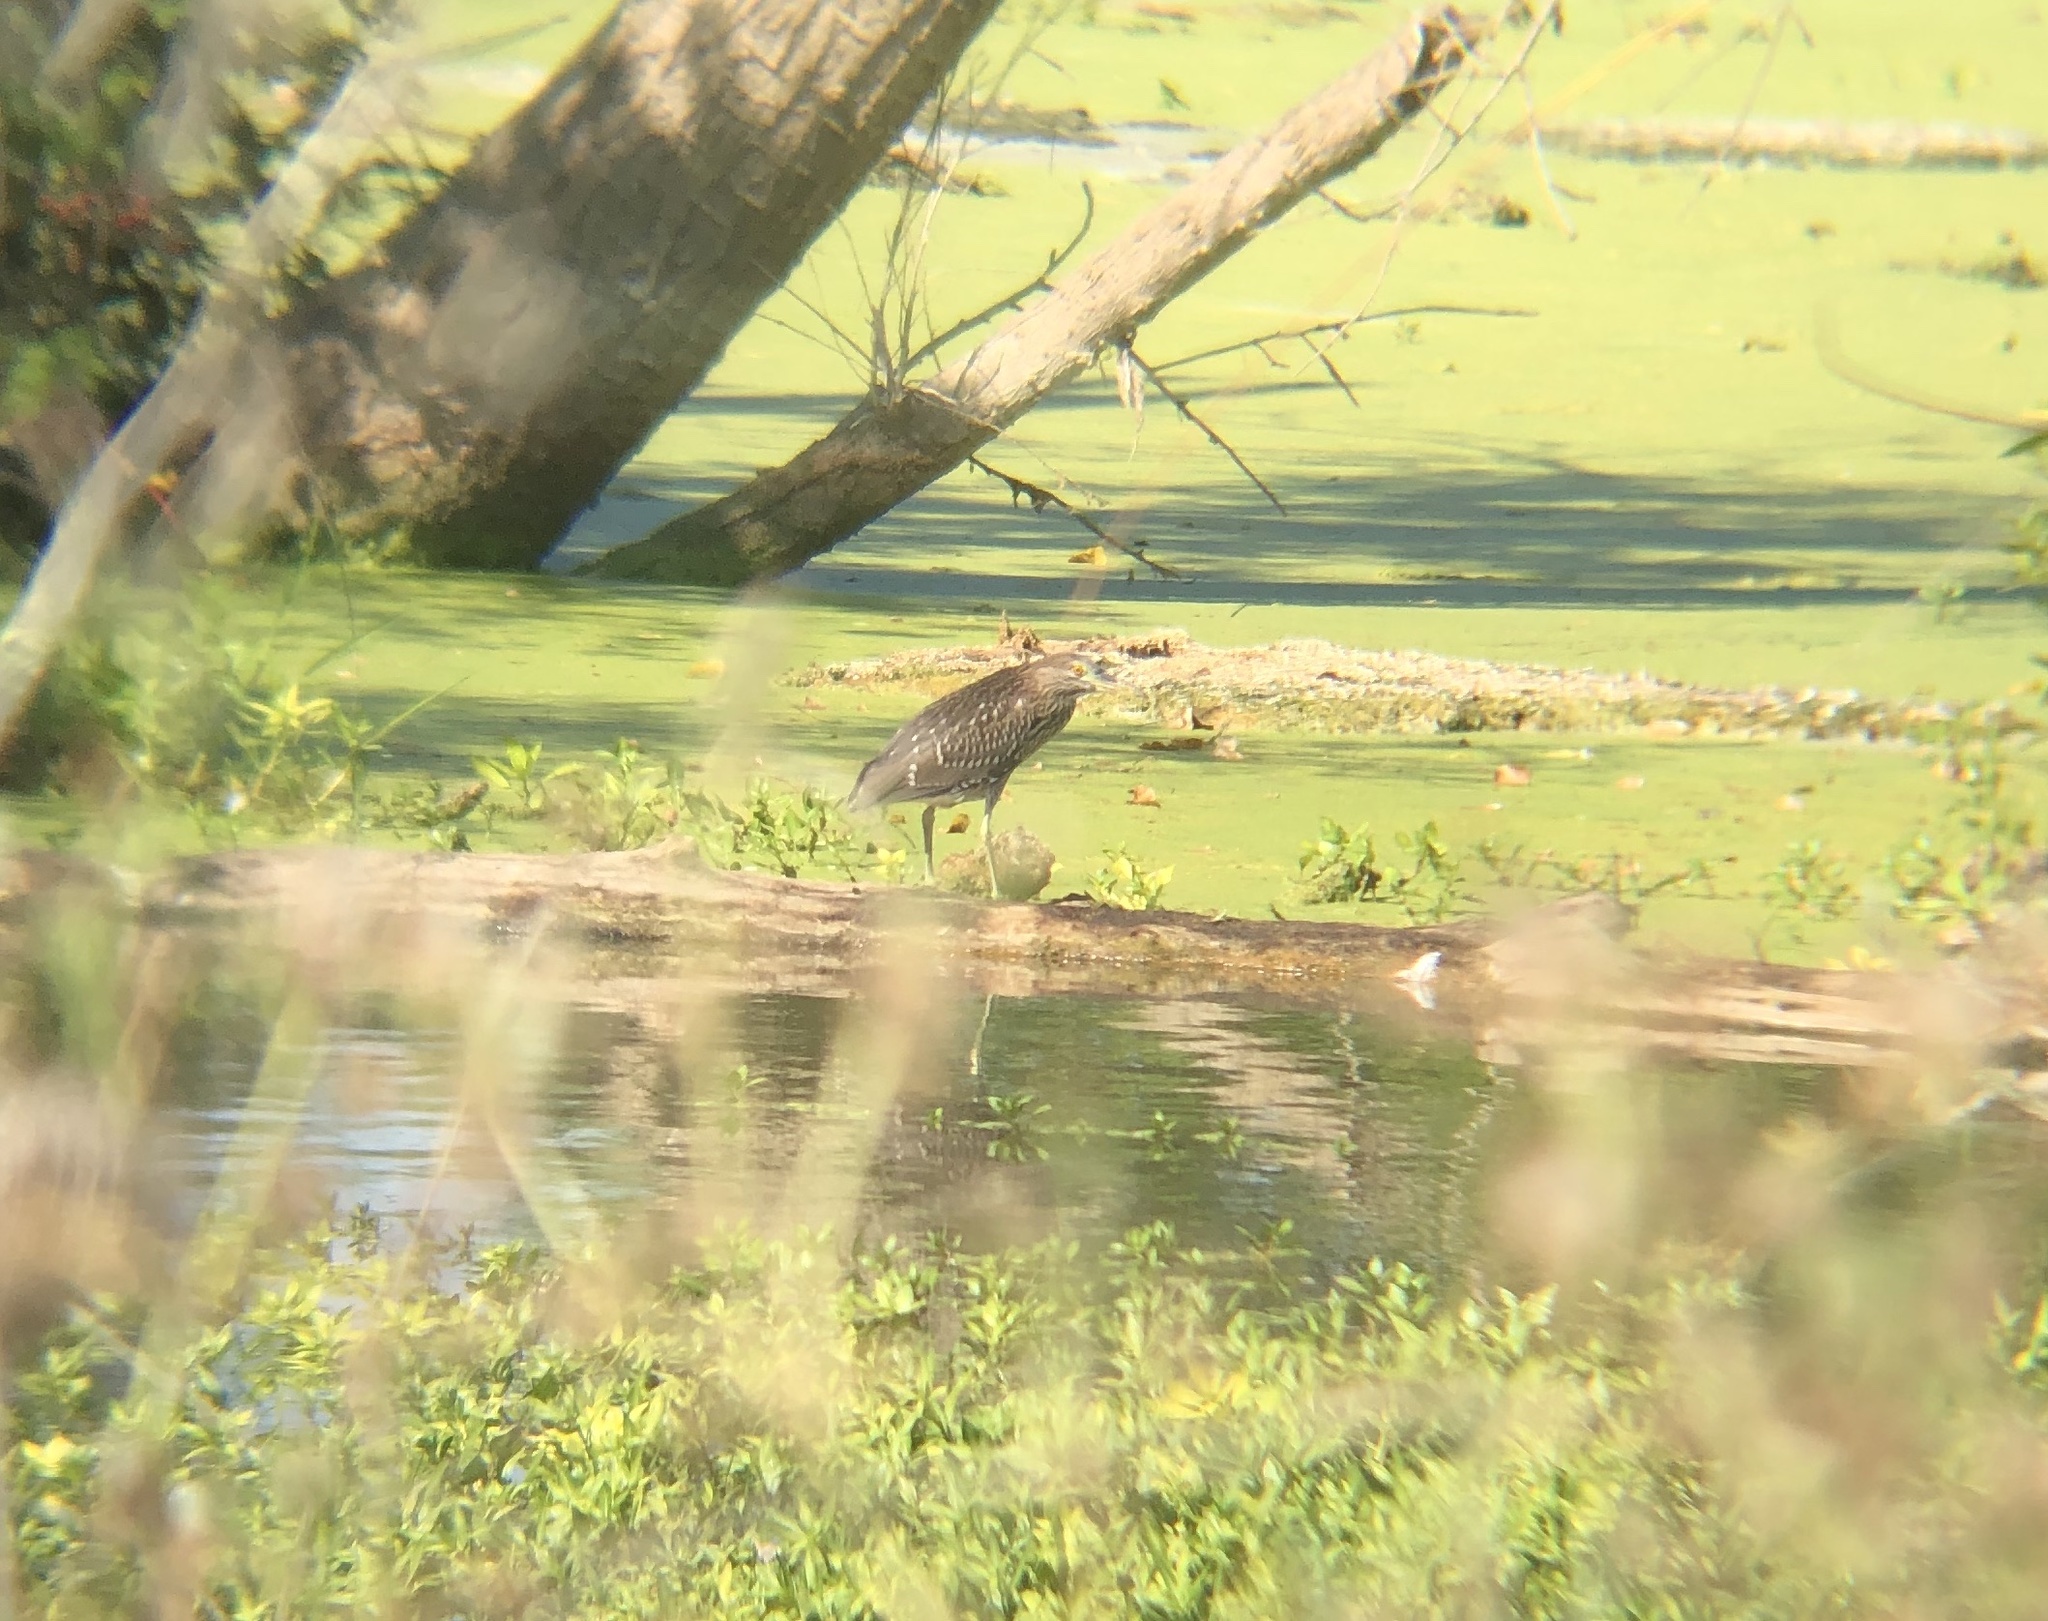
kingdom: Animalia
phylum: Chordata
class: Aves
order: Pelecaniformes
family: Ardeidae
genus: Nycticorax
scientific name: Nycticorax nycticorax
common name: Black-crowned night heron
